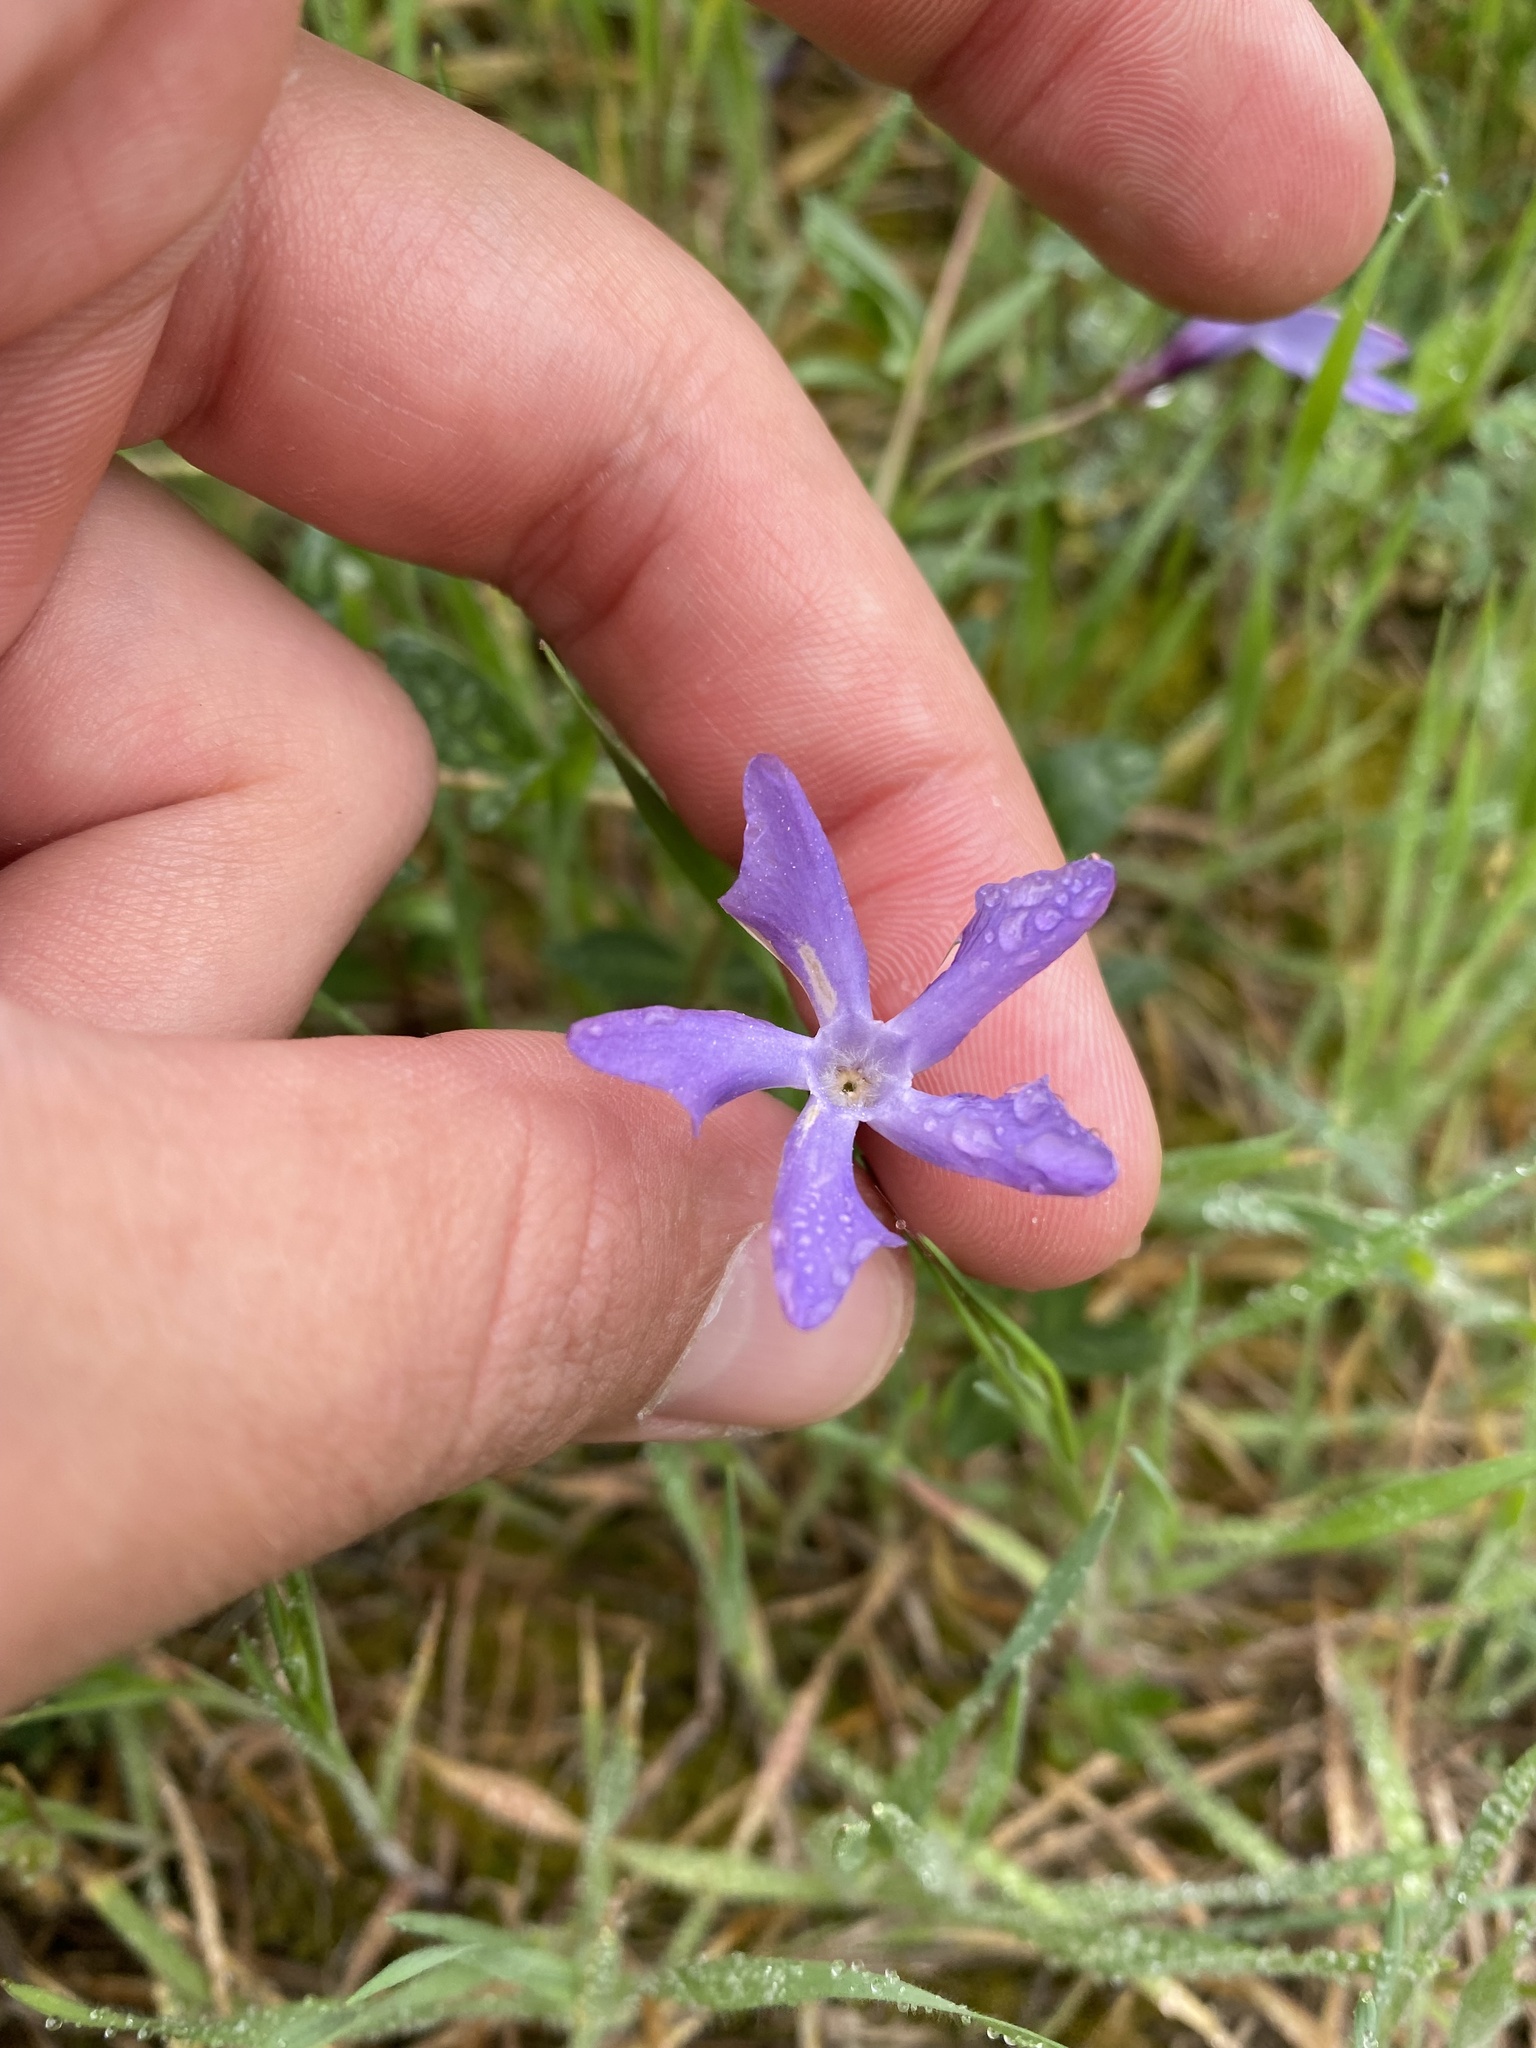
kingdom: Plantae
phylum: Tracheophyta
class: Magnoliopsida
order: Gentianales
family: Apocynaceae
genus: Vinca
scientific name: Vinca herbacea
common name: Herbaceous periwinkle
